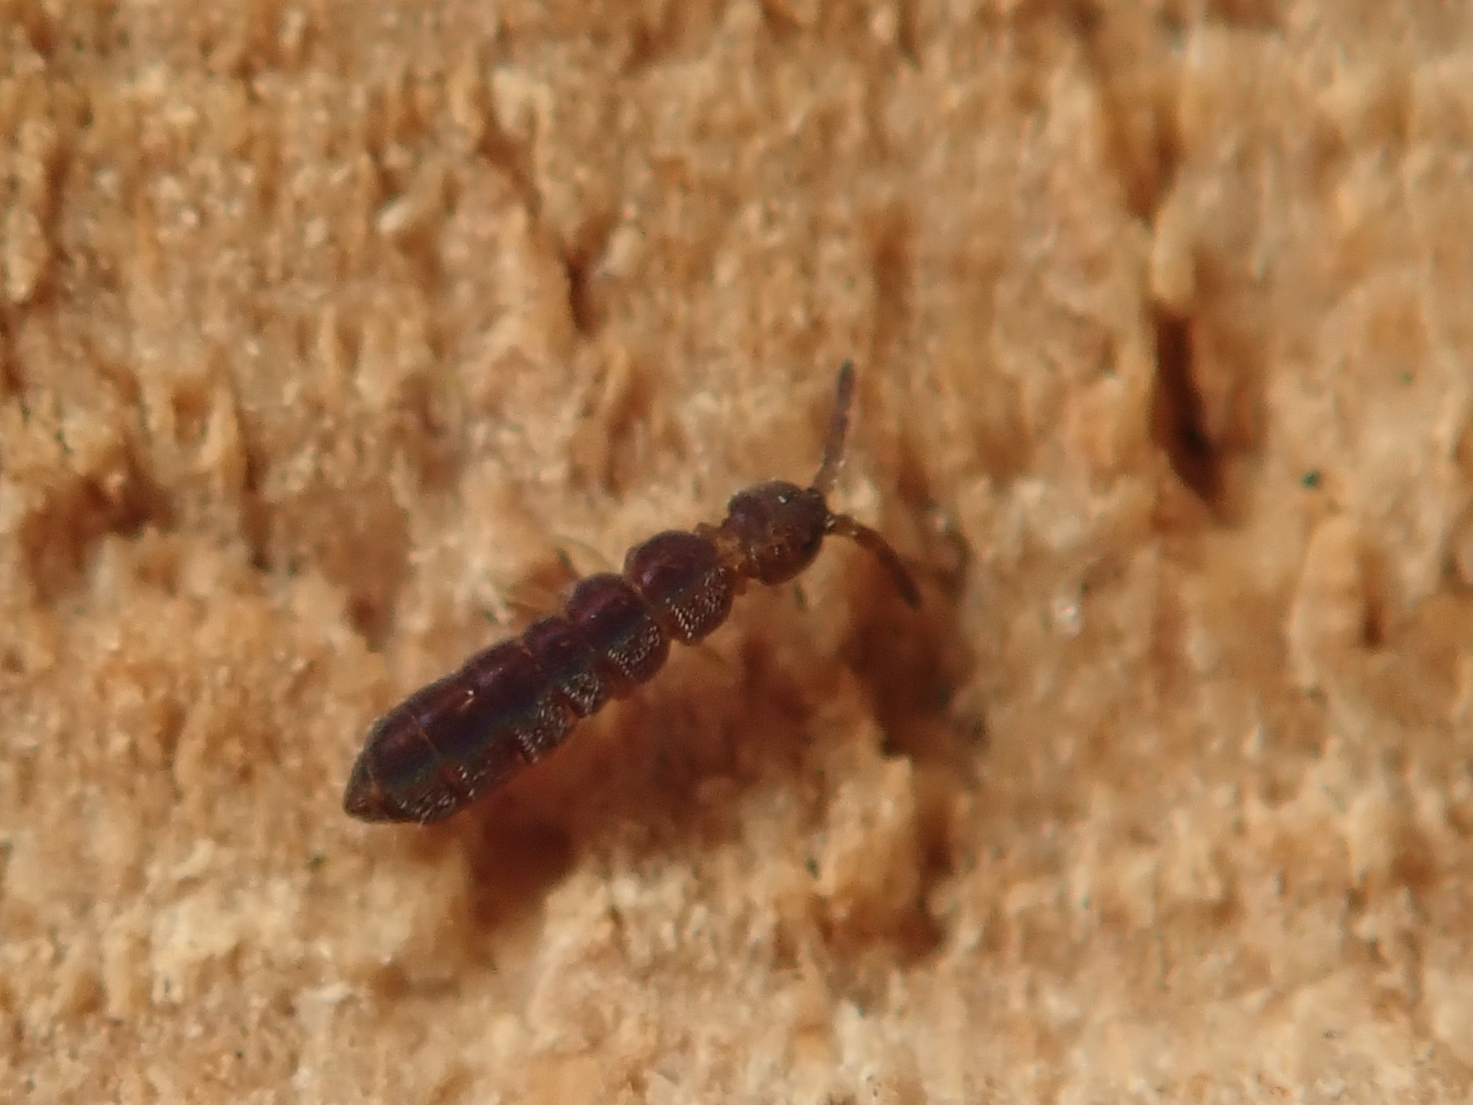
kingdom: Animalia
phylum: Arthropoda
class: Collembola
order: Entomobryomorpha
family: Isotomidae
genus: Vertagopus
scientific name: Vertagopus asiaticus
